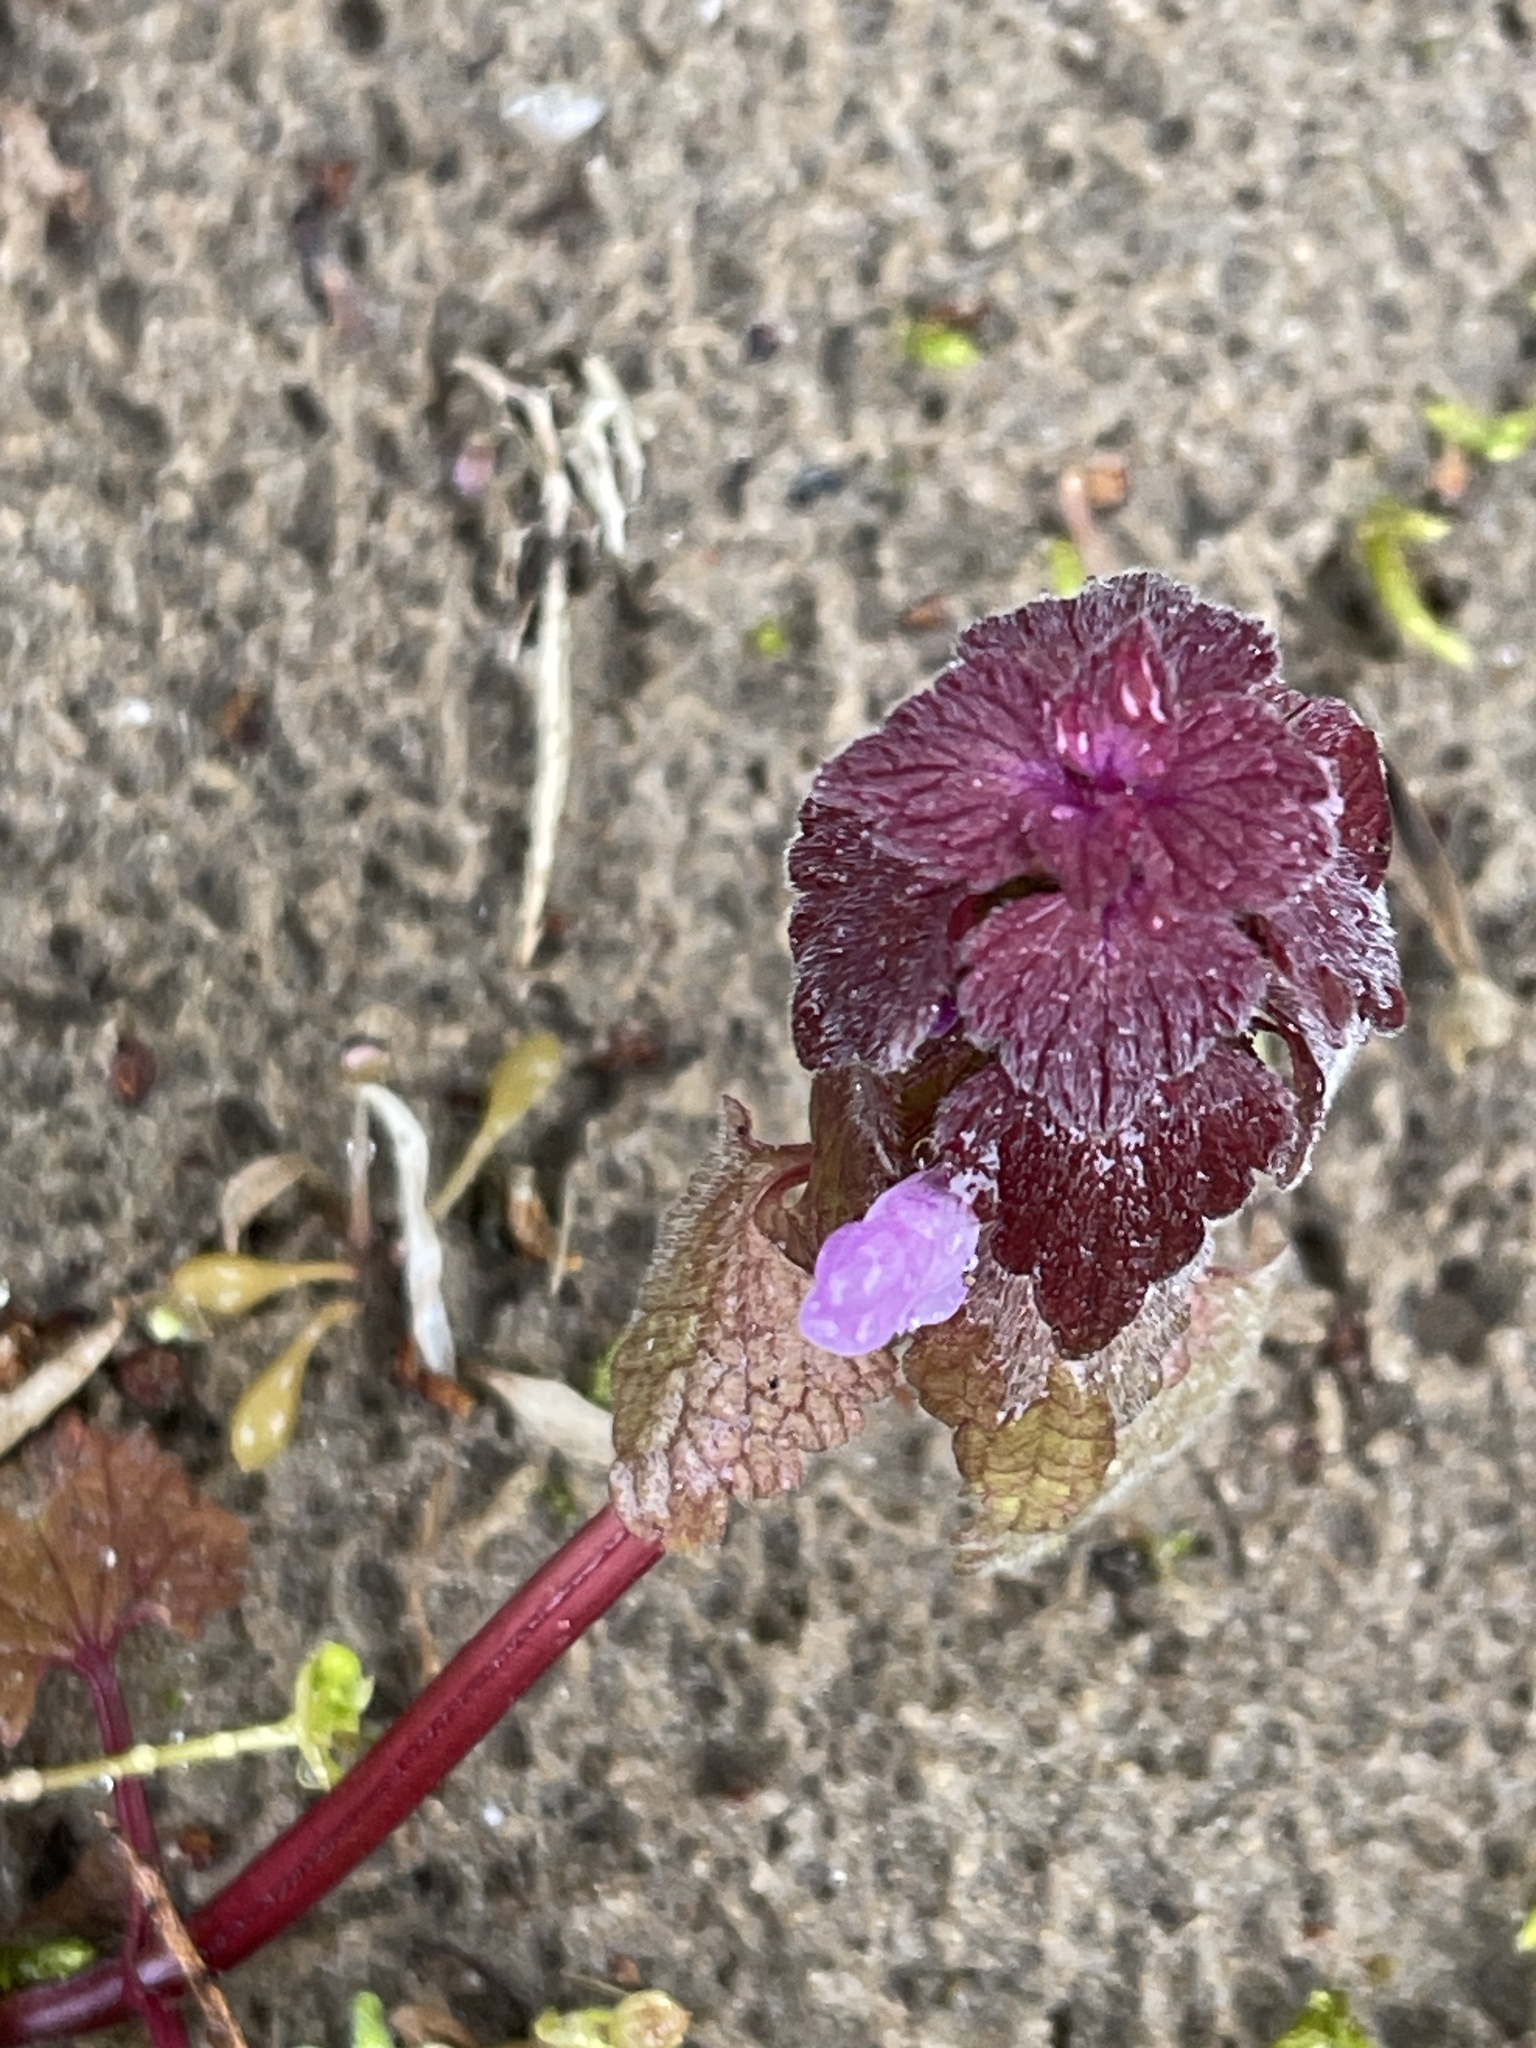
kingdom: Plantae
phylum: Tracheophyta
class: Magnoliopsida
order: Lamiales
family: Lamiaceae
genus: Lamium
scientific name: Lamium purpureum
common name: Red dead-nettle
